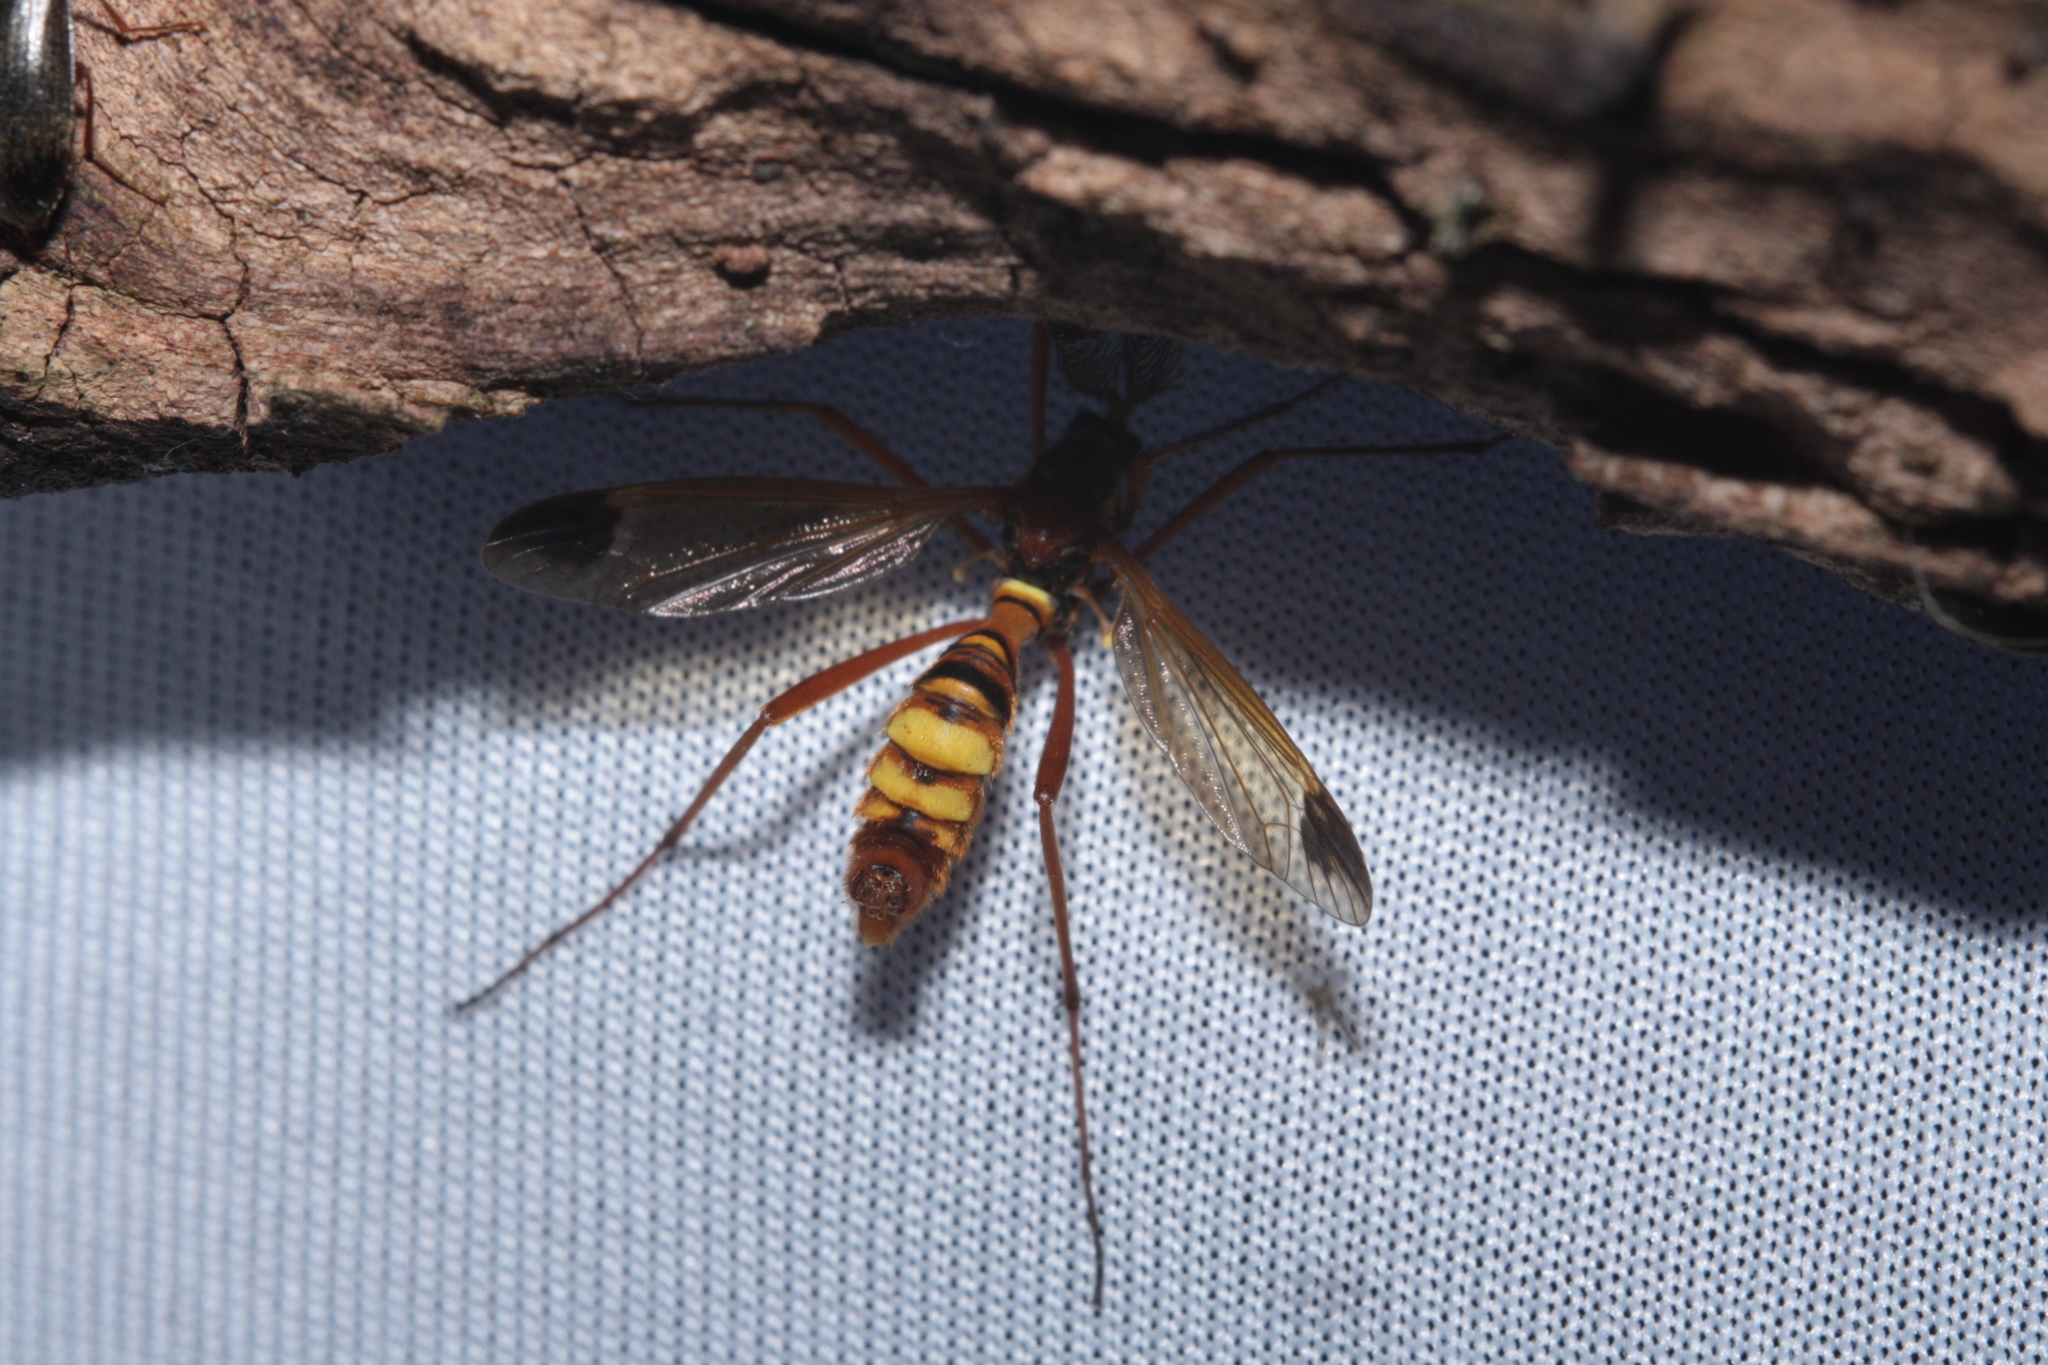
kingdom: Animalia
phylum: Arthropoda
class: Insecta
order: Diptera
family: Tipulidae
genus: Ctenophora
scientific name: Ctenophora ornata
